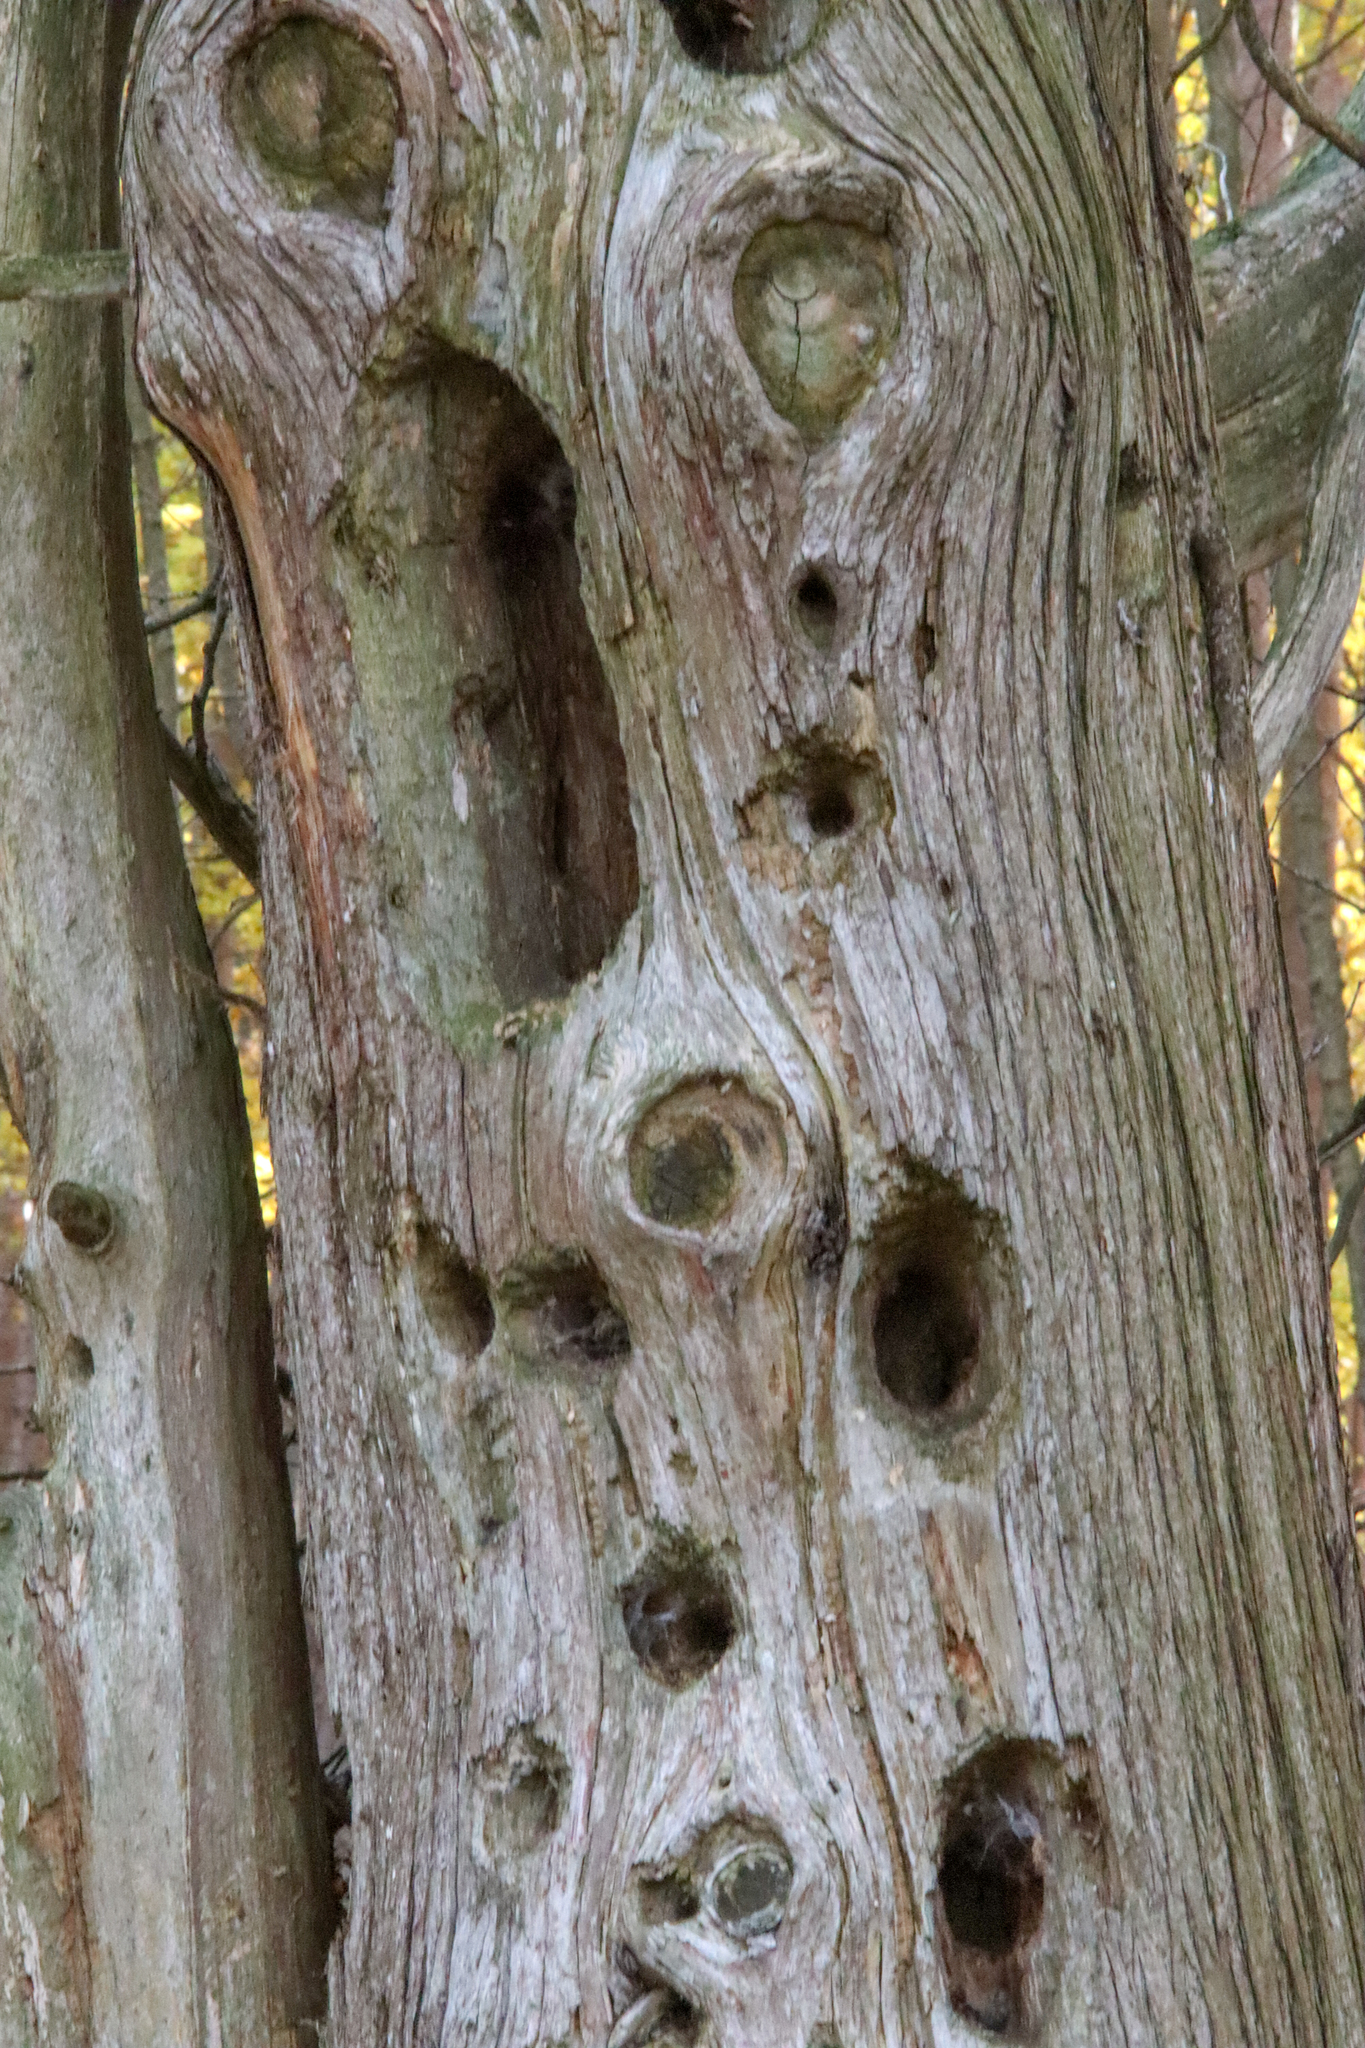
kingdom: Animalia
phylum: Chordata
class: Aves
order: Piciformes
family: Picidae
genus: Dryocopus
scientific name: Dryocopus pileatus
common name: Pileated woodpecker
